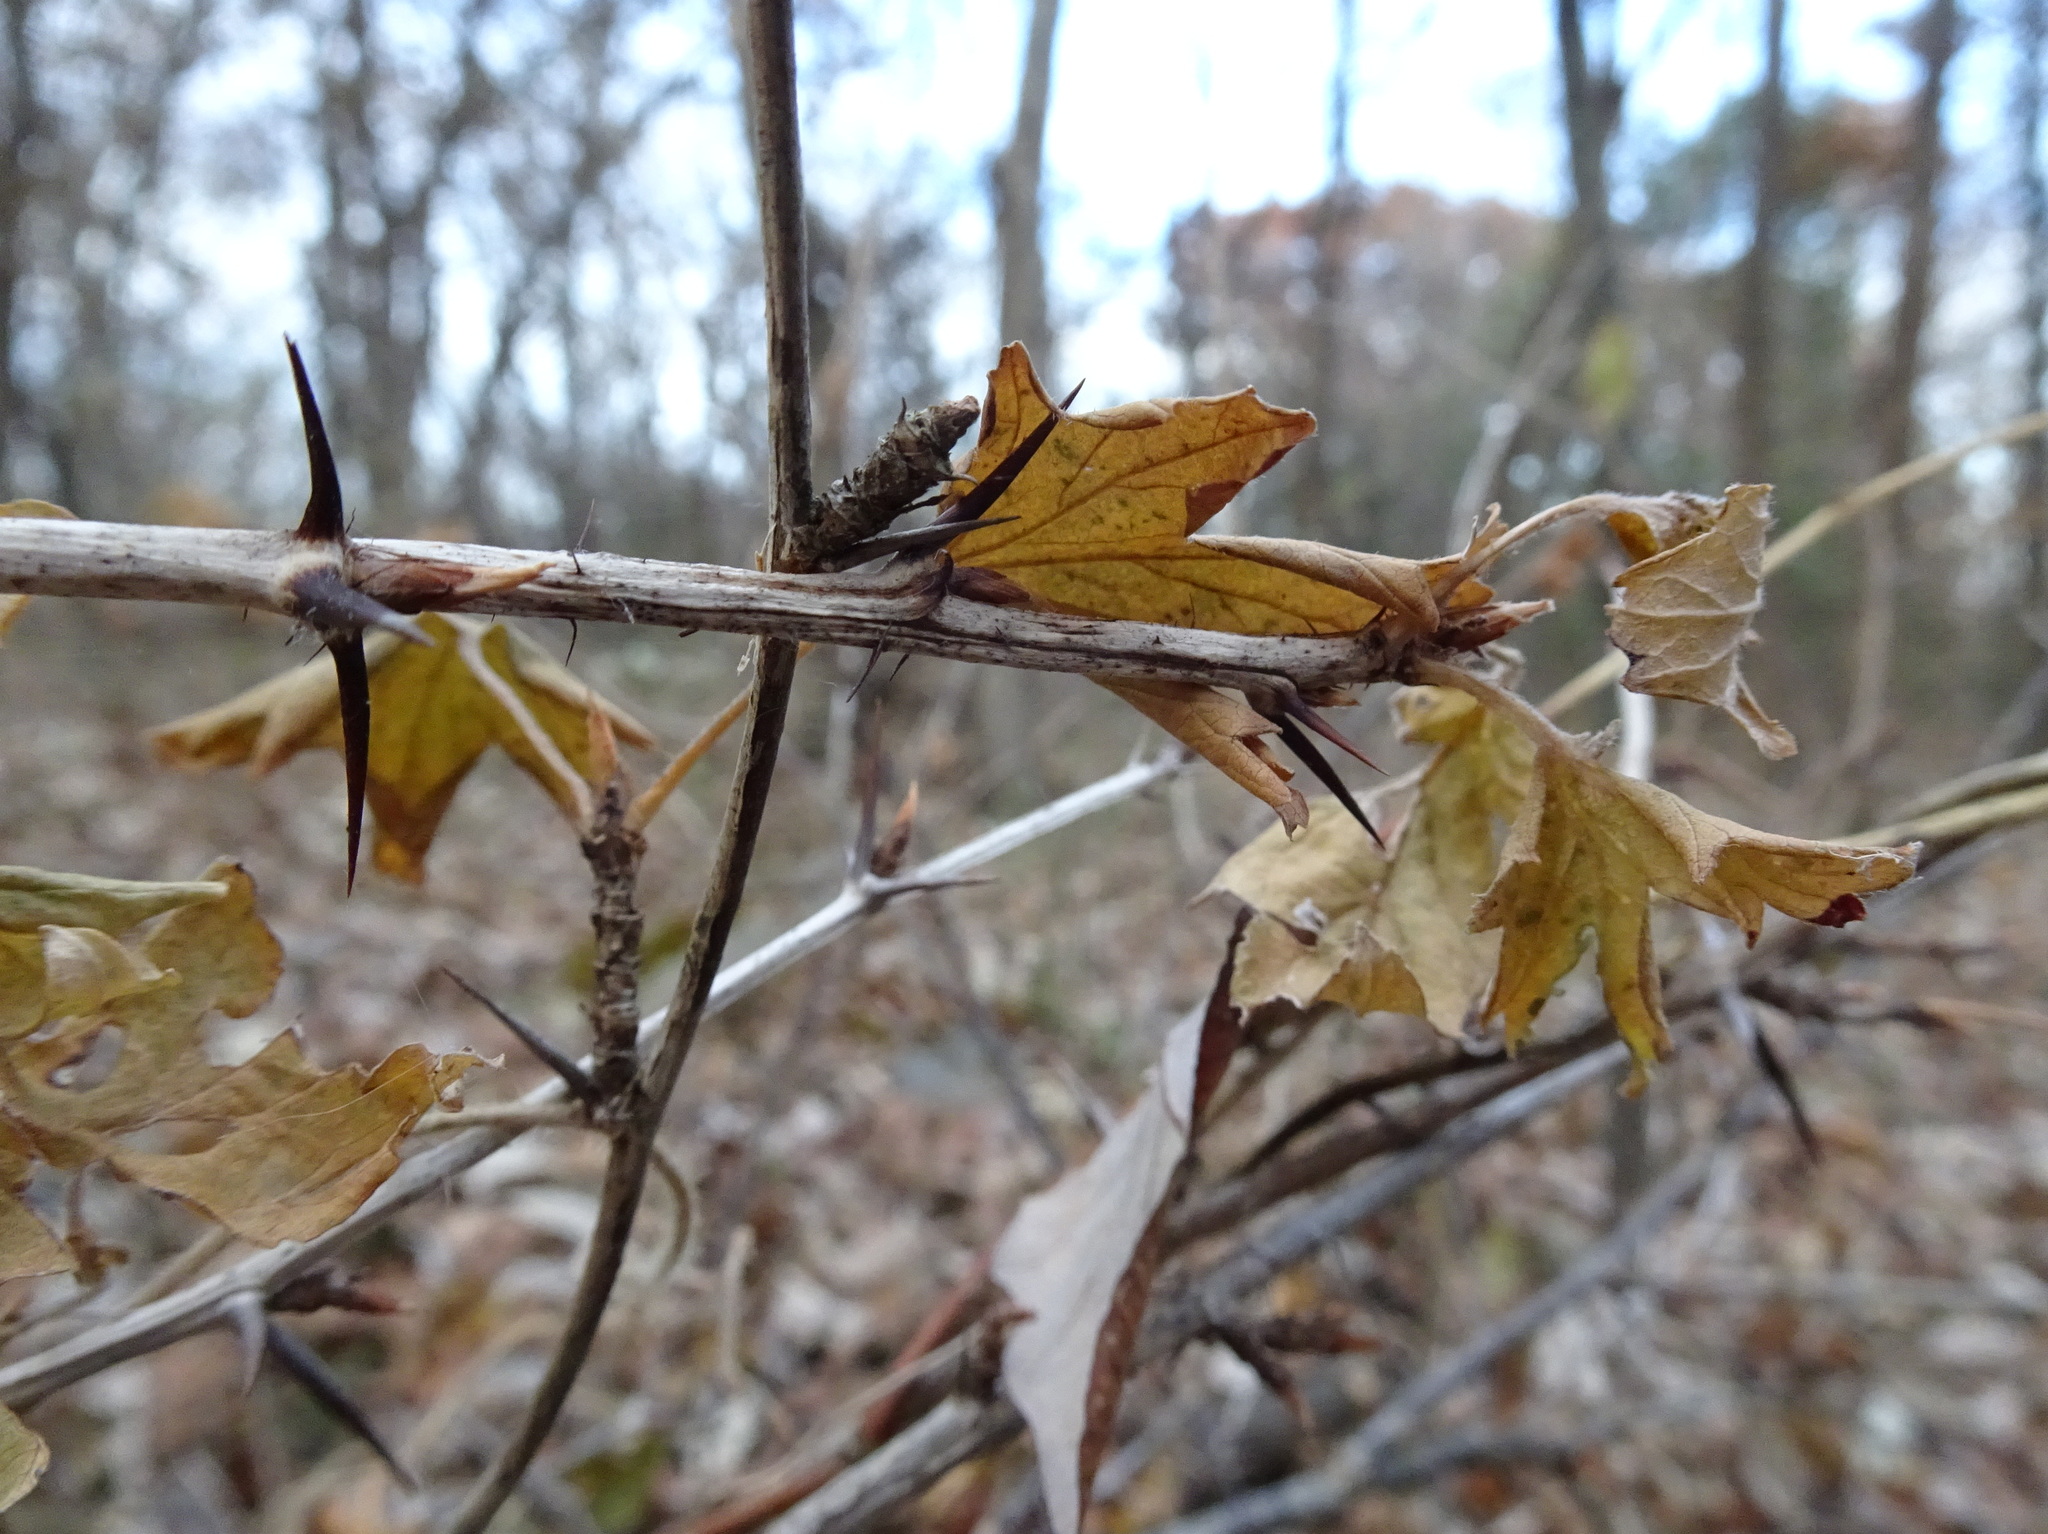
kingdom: Plantae
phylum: Tracheophyta
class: Magnoliopsida
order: Saxifragales
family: Grossulariaceae
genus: Ribes
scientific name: Ribes missouriense
